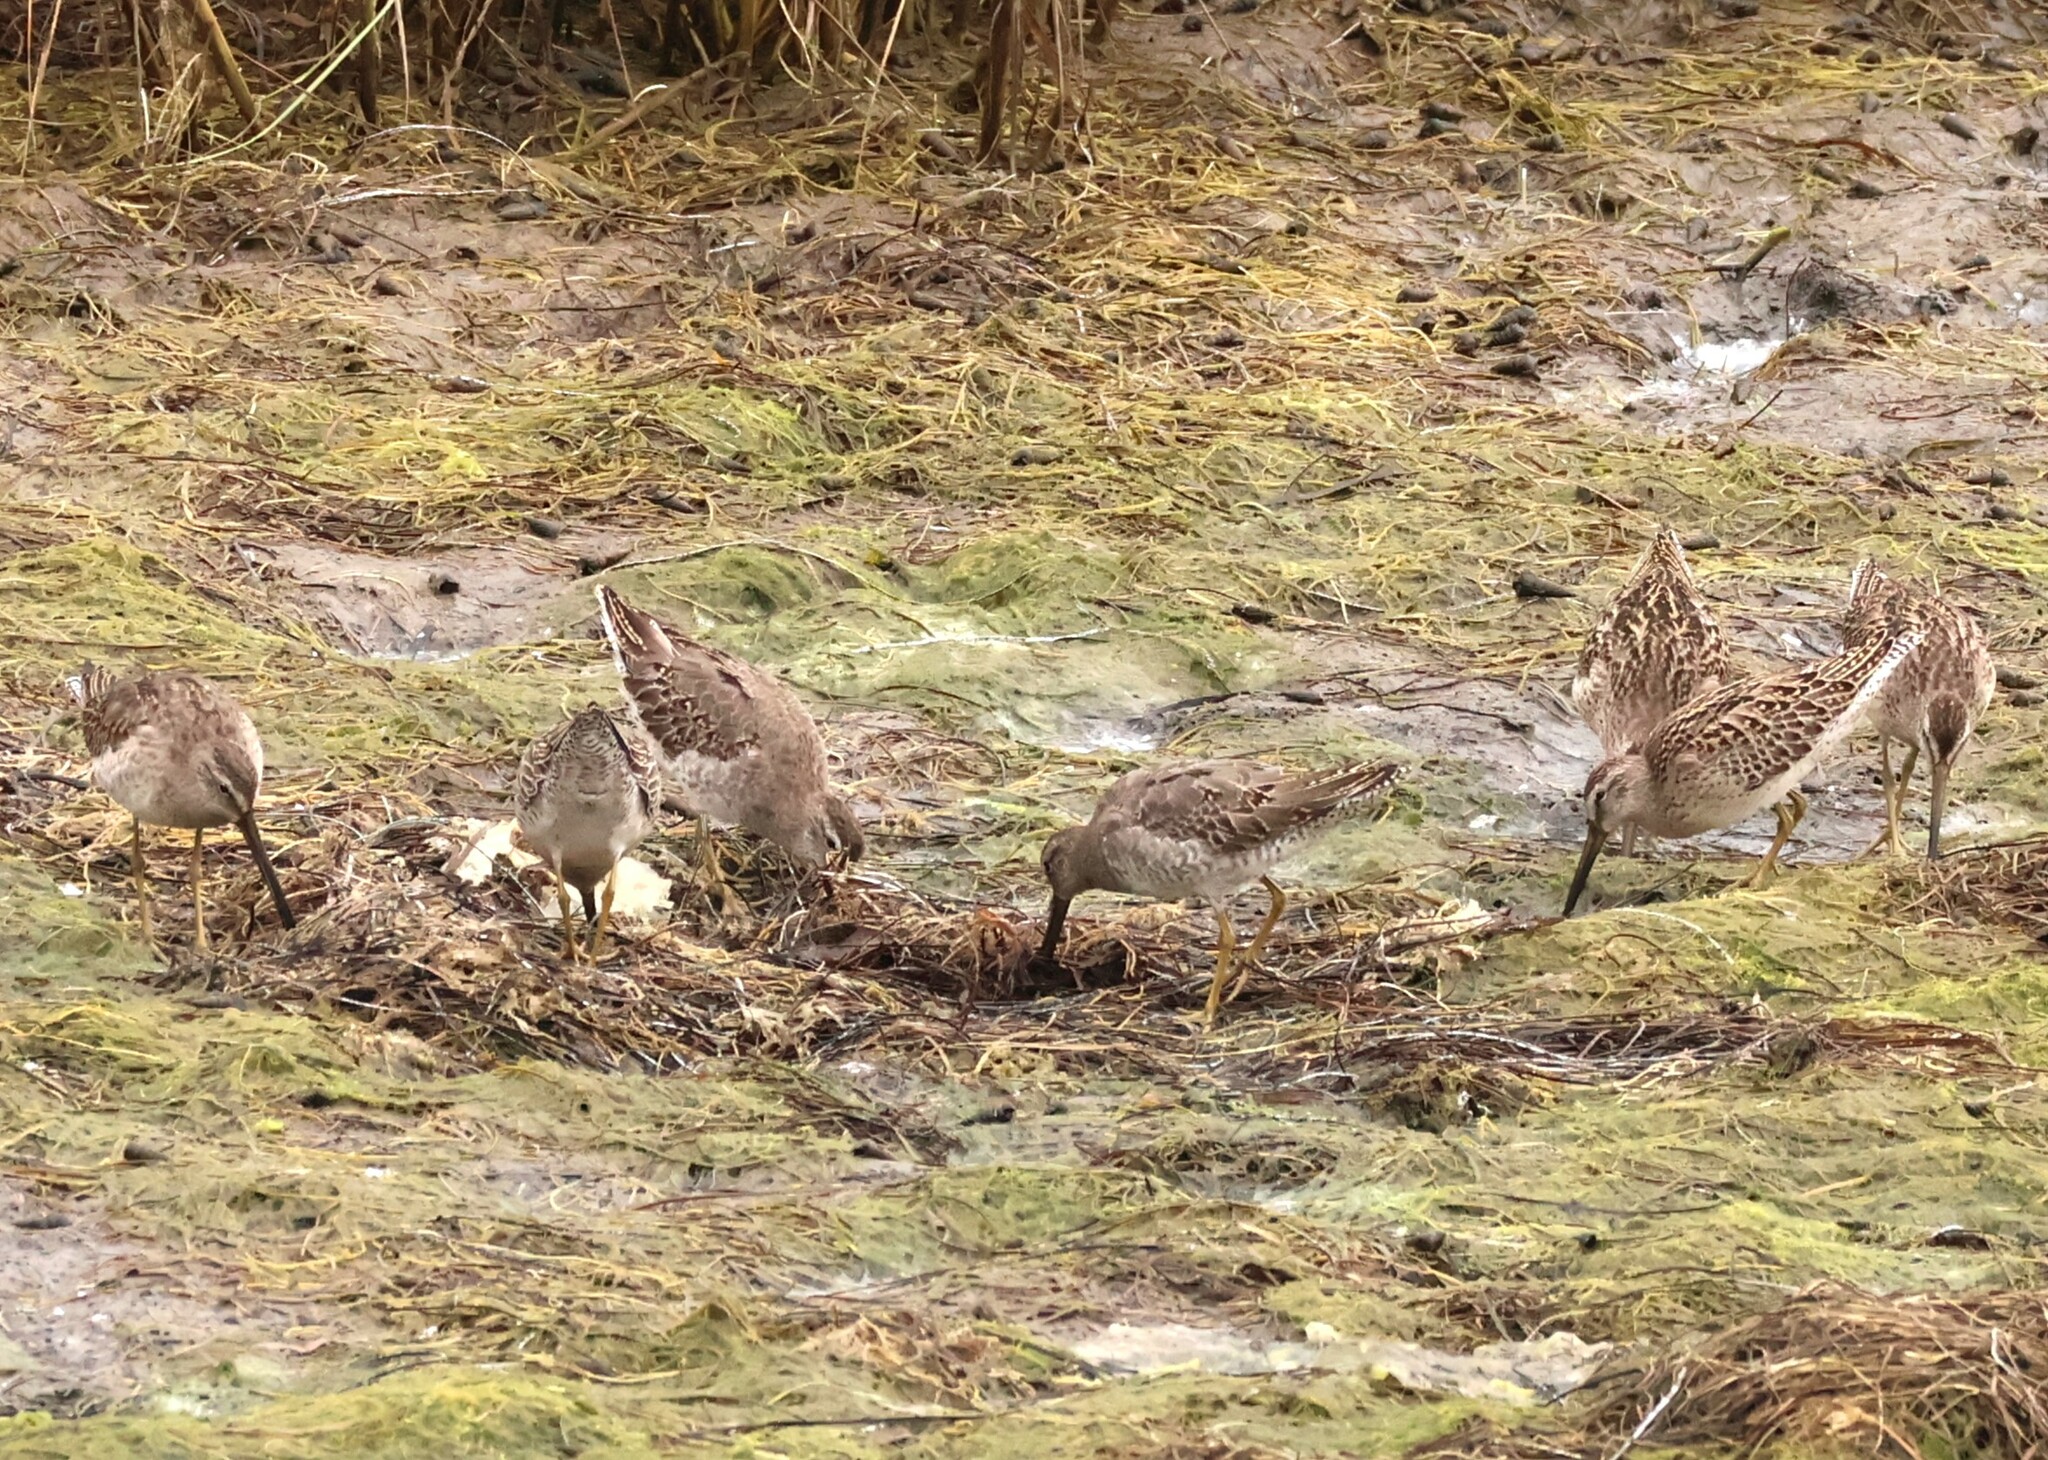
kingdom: Animalia
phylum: Chordata
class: Aves
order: Charadriiformes
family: Scolopacidae
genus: Limnodromus
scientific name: Limnodromus griseus
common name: Short-billed dowitcher
